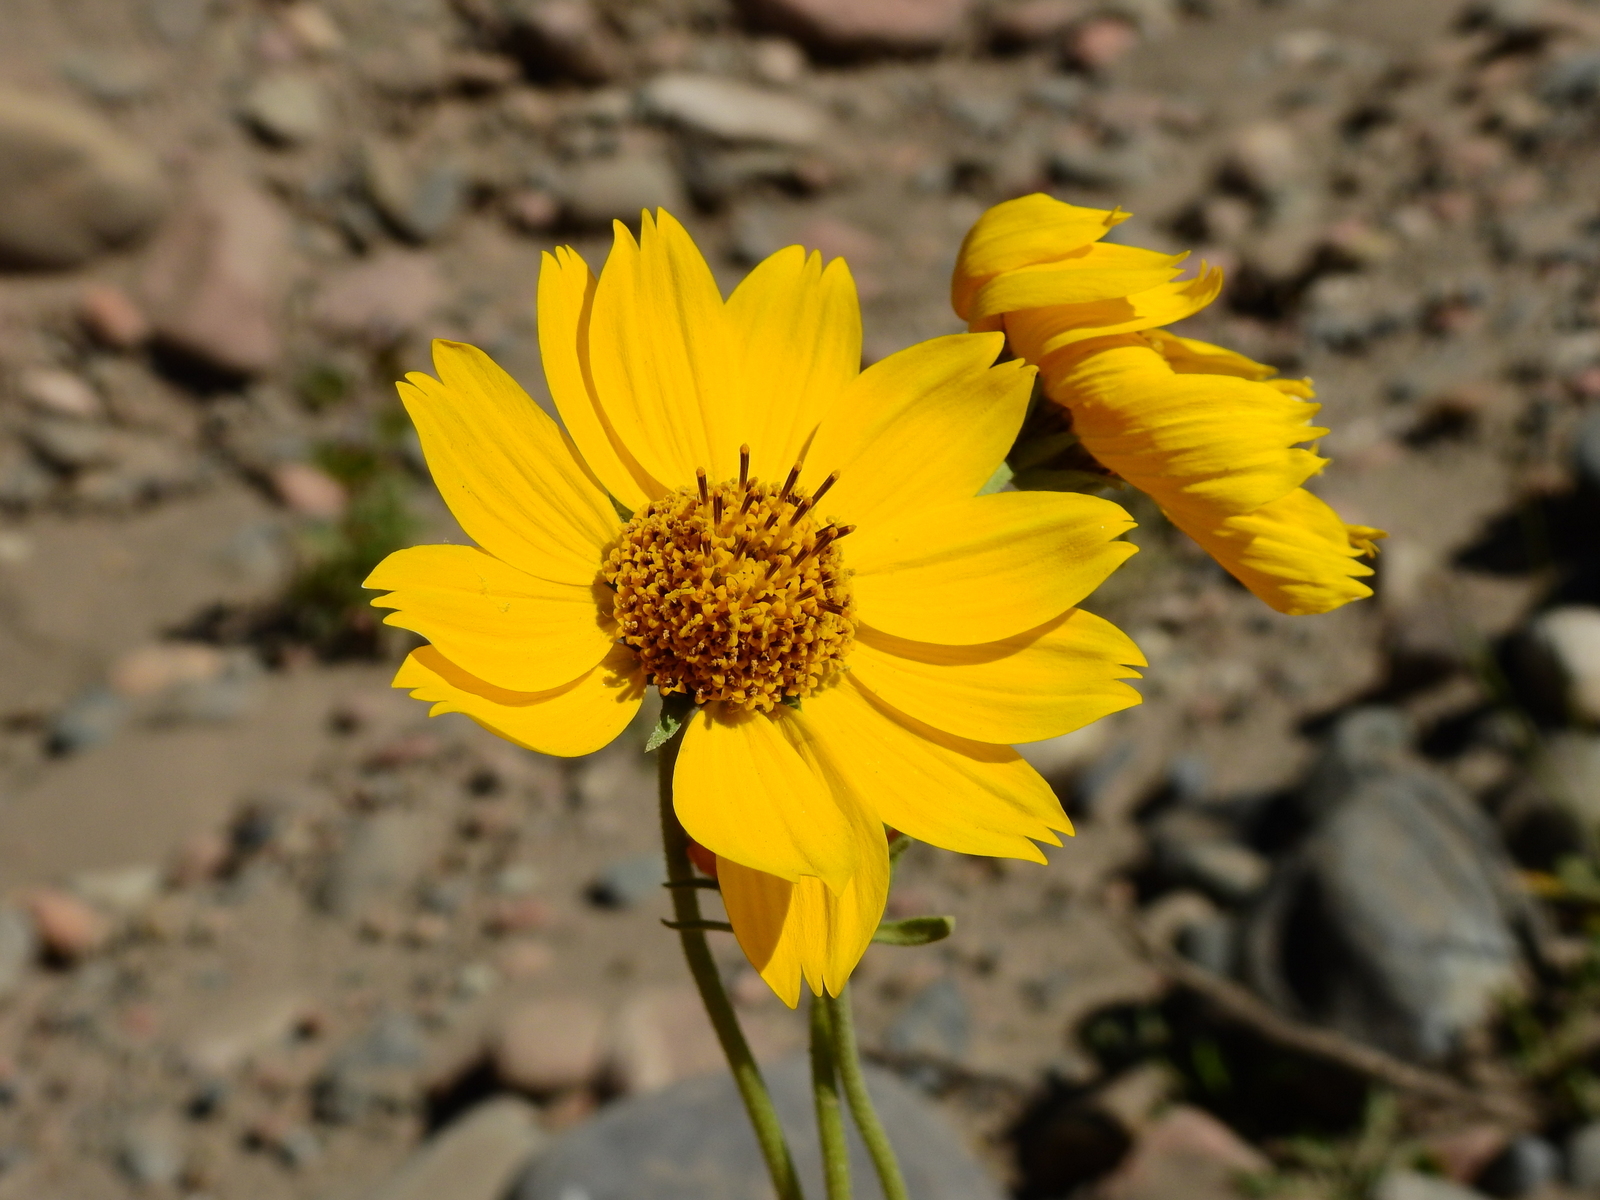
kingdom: Plantae
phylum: Tracheophyta
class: Magnoliopsida
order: Asterales
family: Asteraceae
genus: Verbesina
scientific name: Verbesina encelioides
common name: Golden crownbeard
